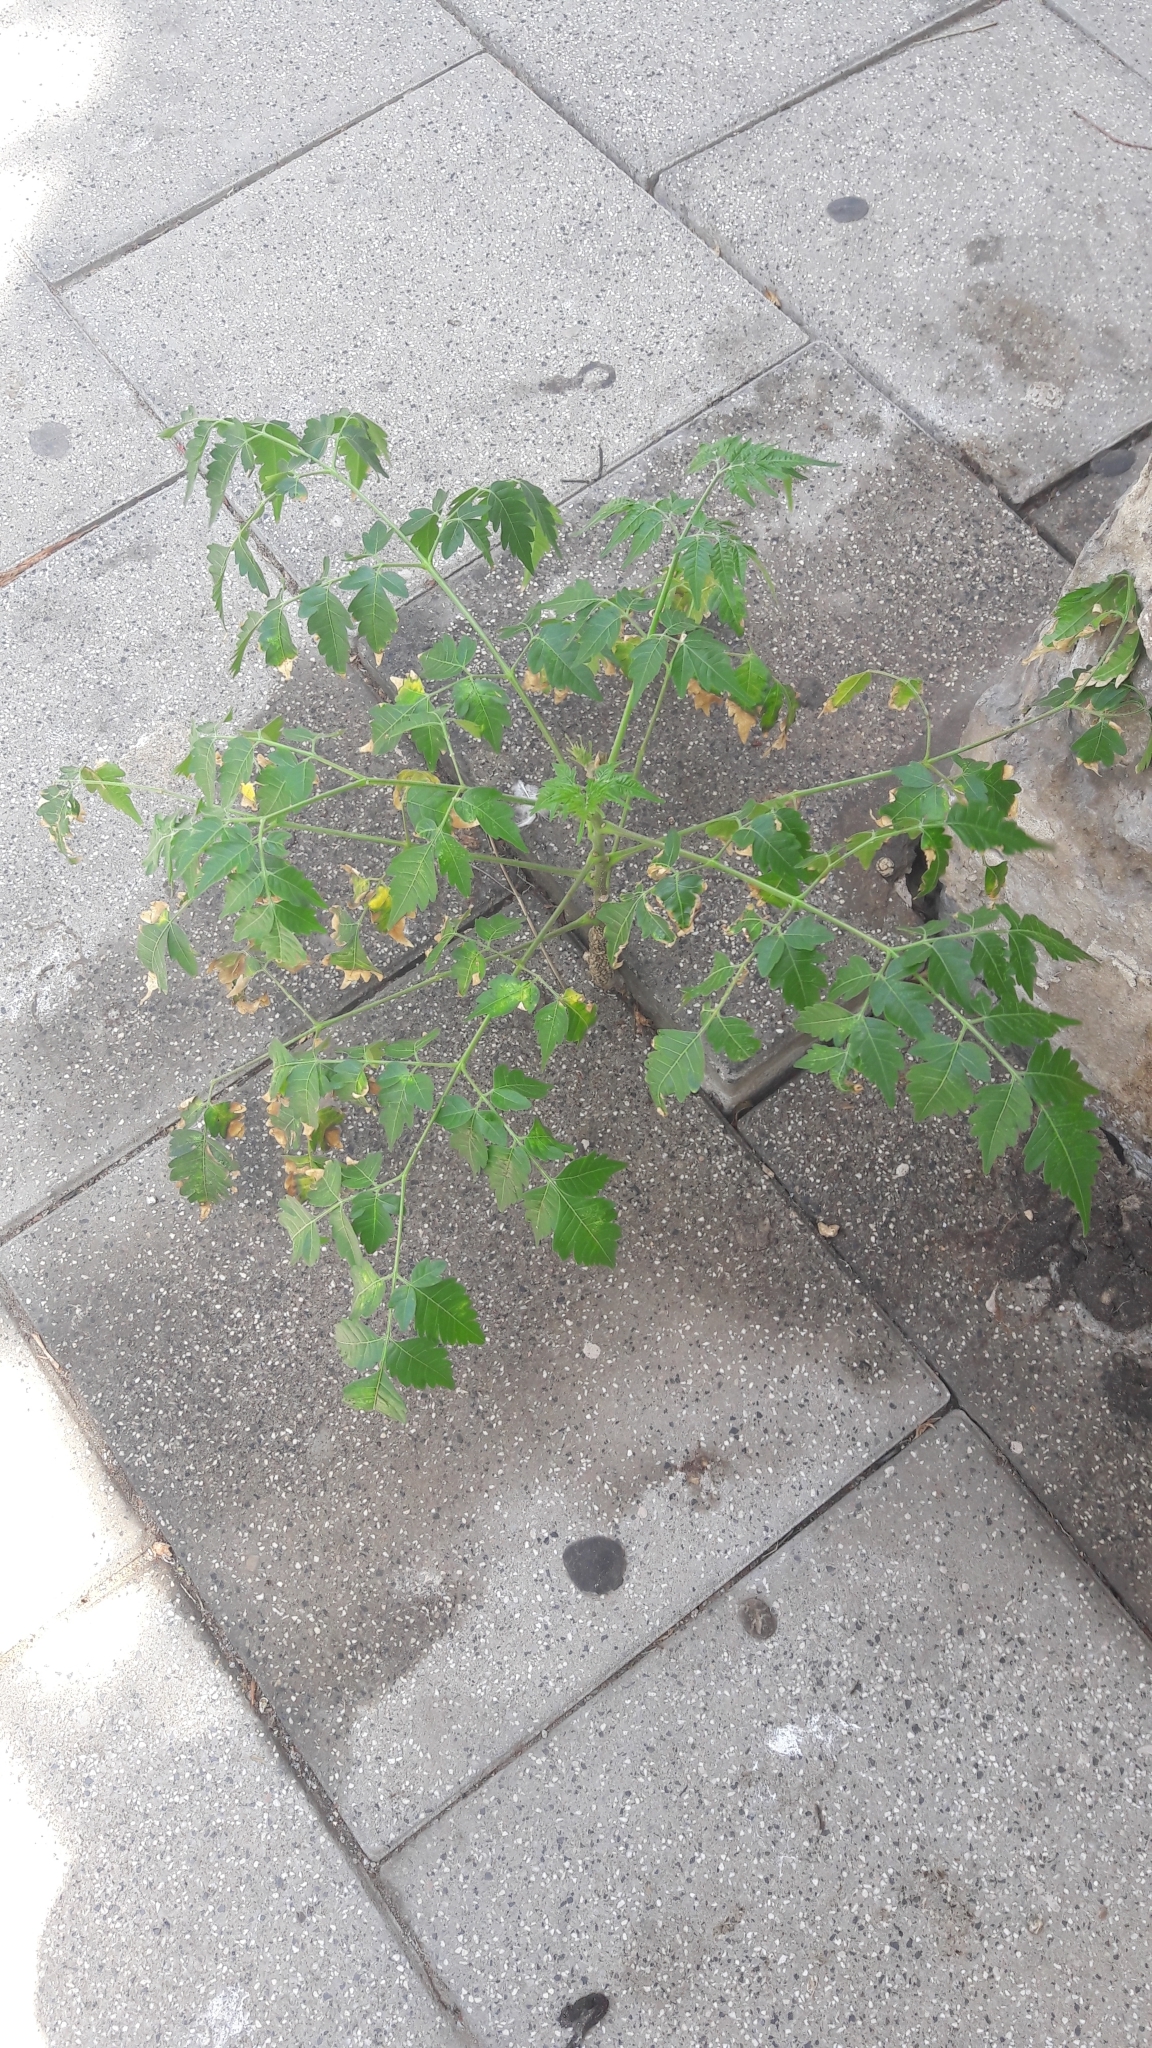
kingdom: Plantae
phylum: Tracheophyta
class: Magnoliopsida
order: Sapindales
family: Meliaceae
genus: Melia
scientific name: Melia azedarach
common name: Chinaberrytree
